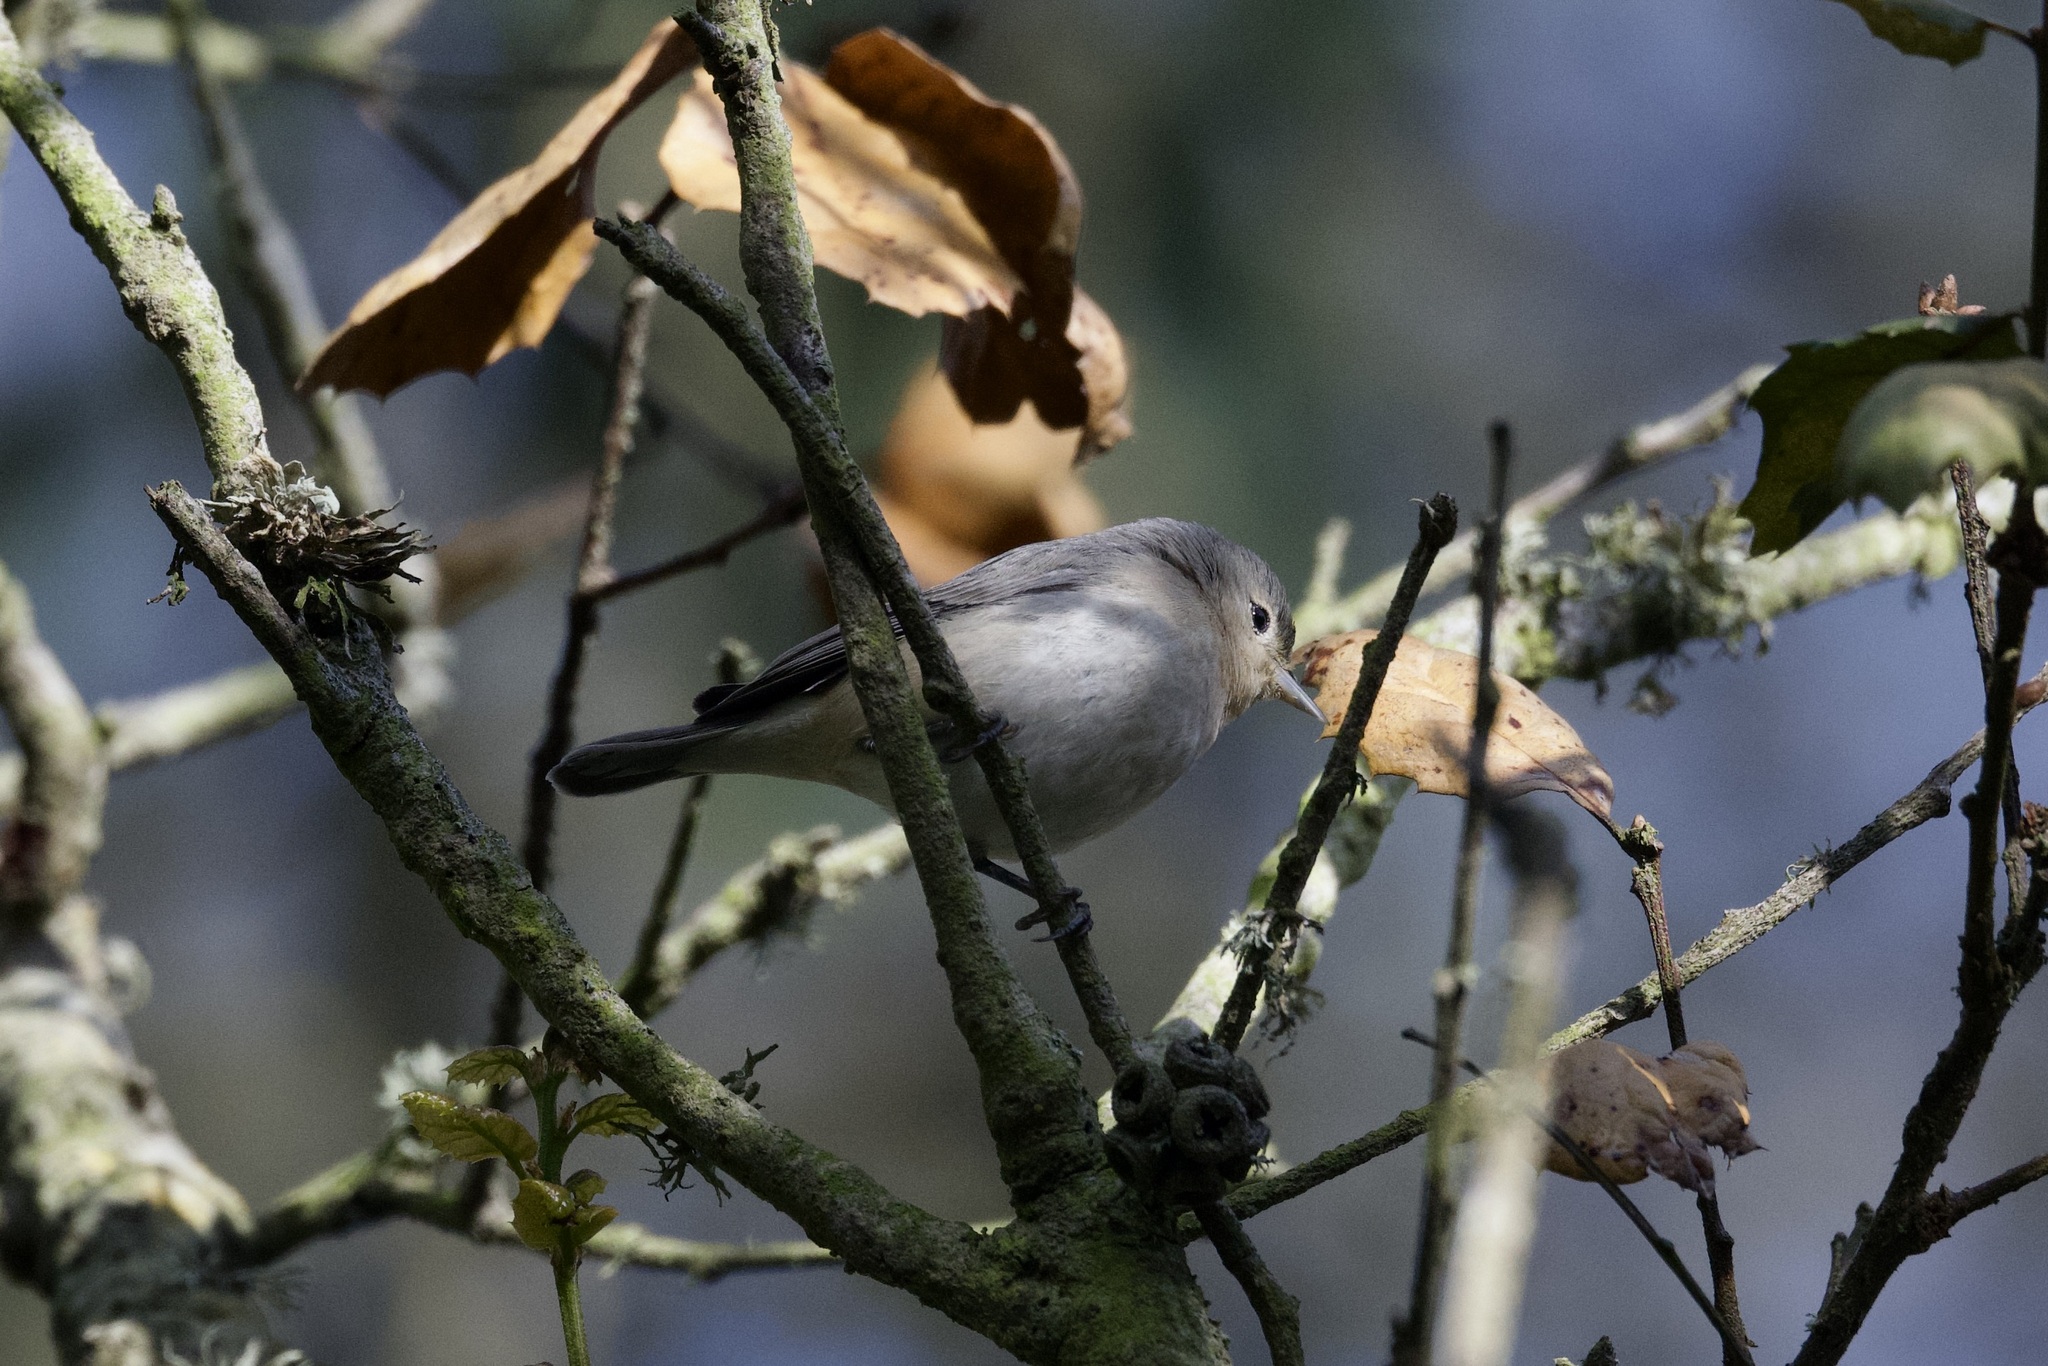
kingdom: Animalia
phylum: Chordata
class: Aves
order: Passeriformes
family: Parulidae
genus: Leiothlypis
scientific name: Leiothlypis luciae
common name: Lucy's warbler
